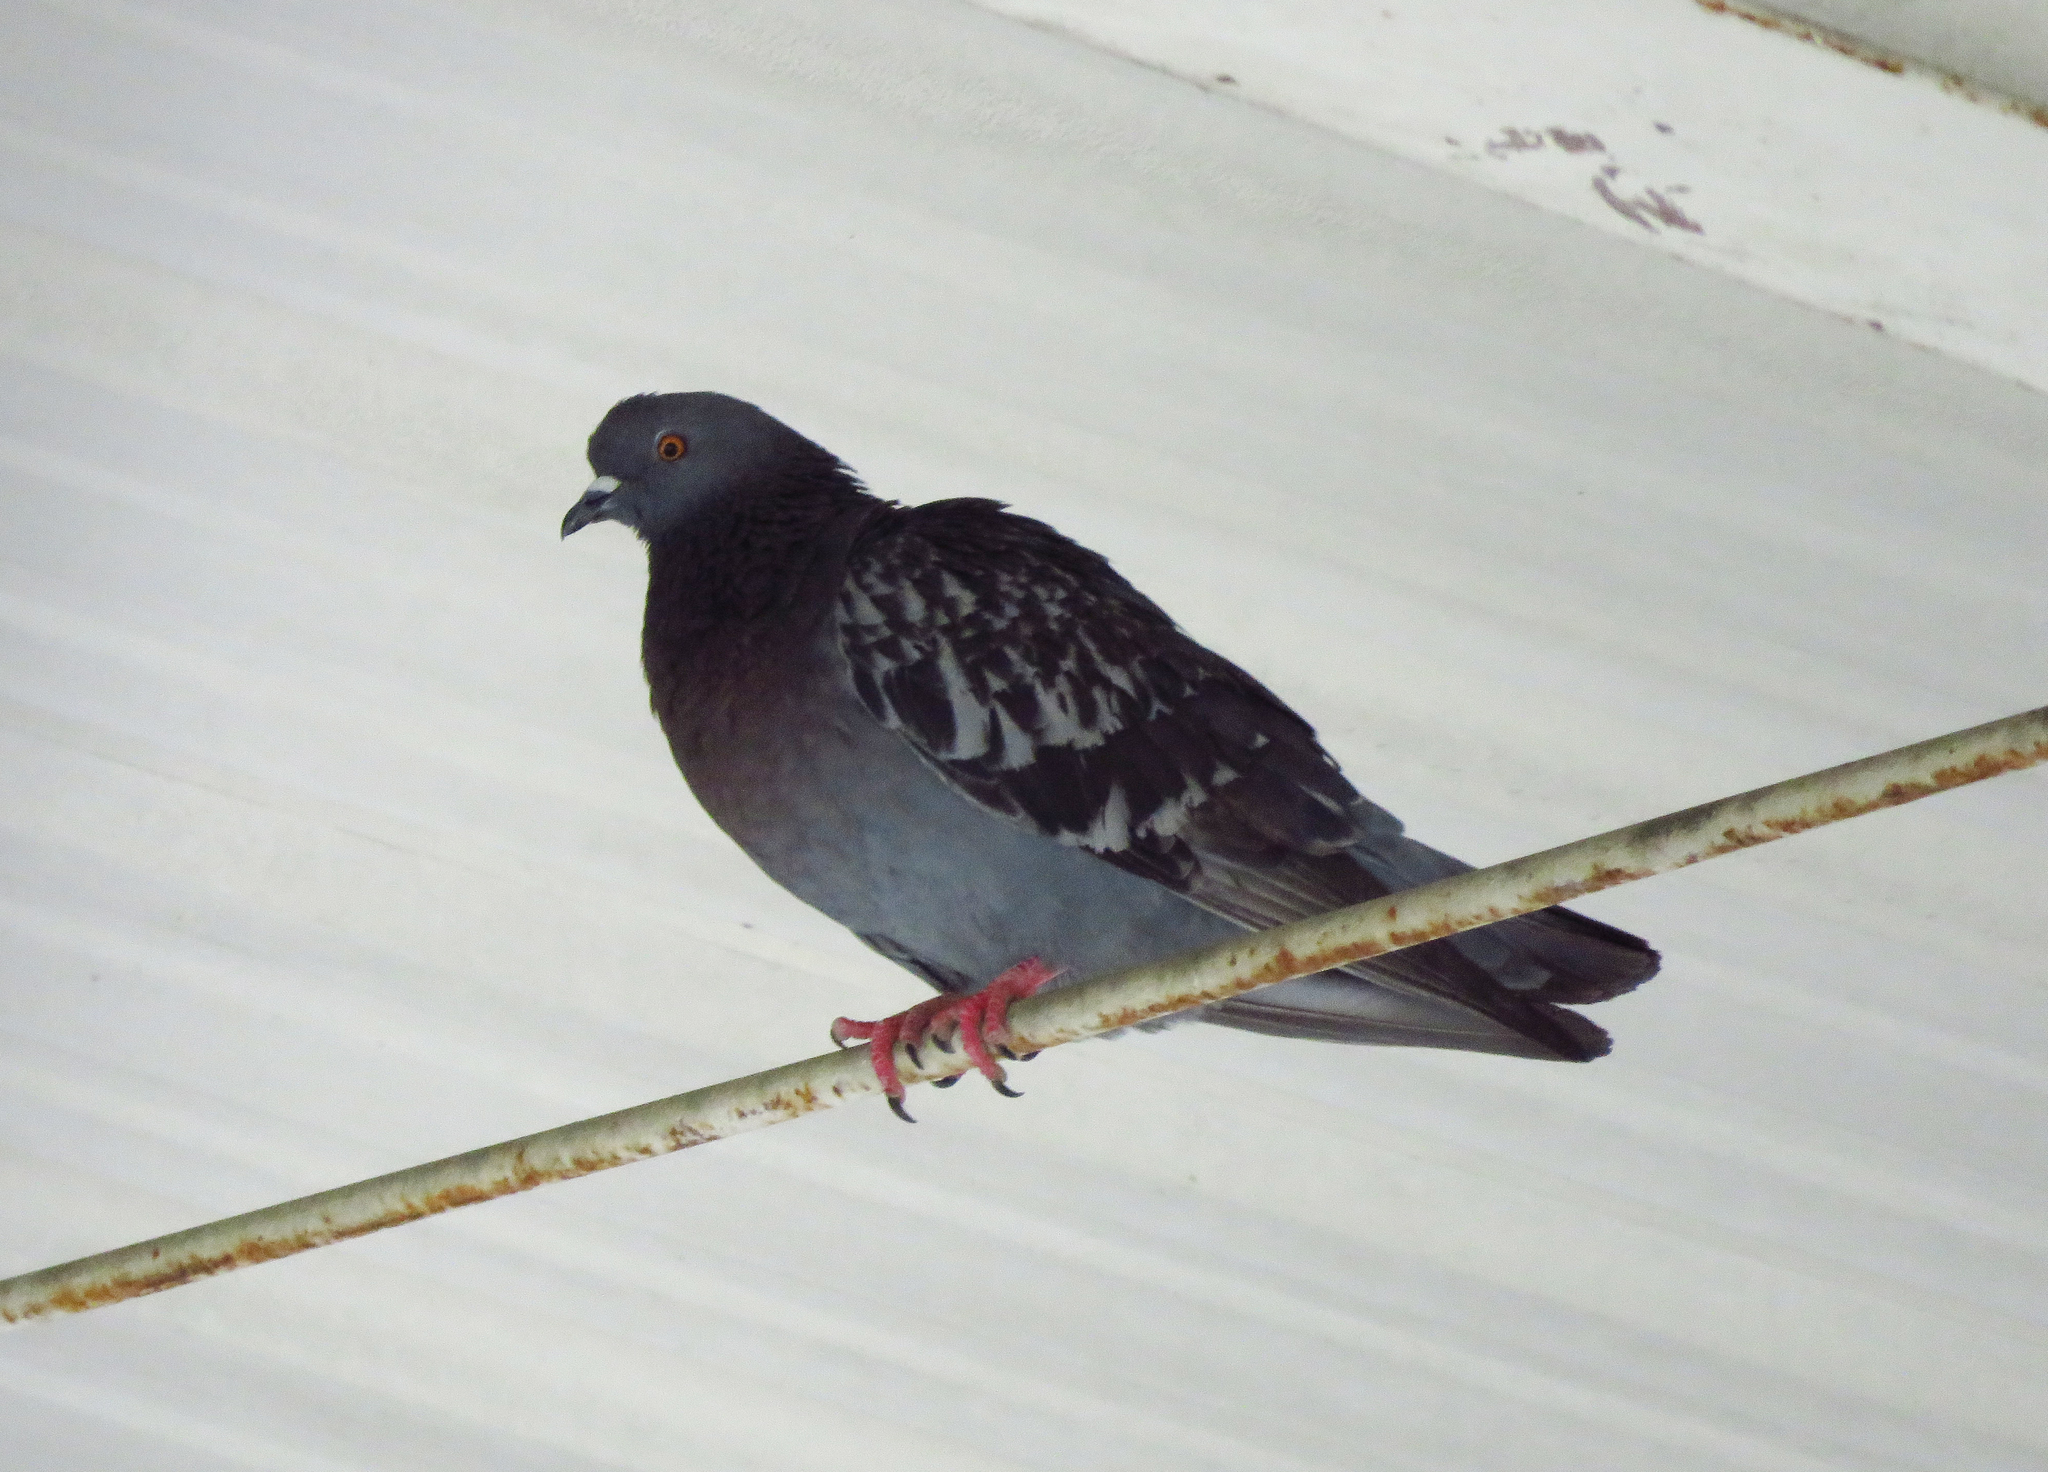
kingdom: Animalia
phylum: Chordata
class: Aves
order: Columbiformes
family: Columbidae
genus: Columba
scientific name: Columba livia
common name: Rock pigeon
